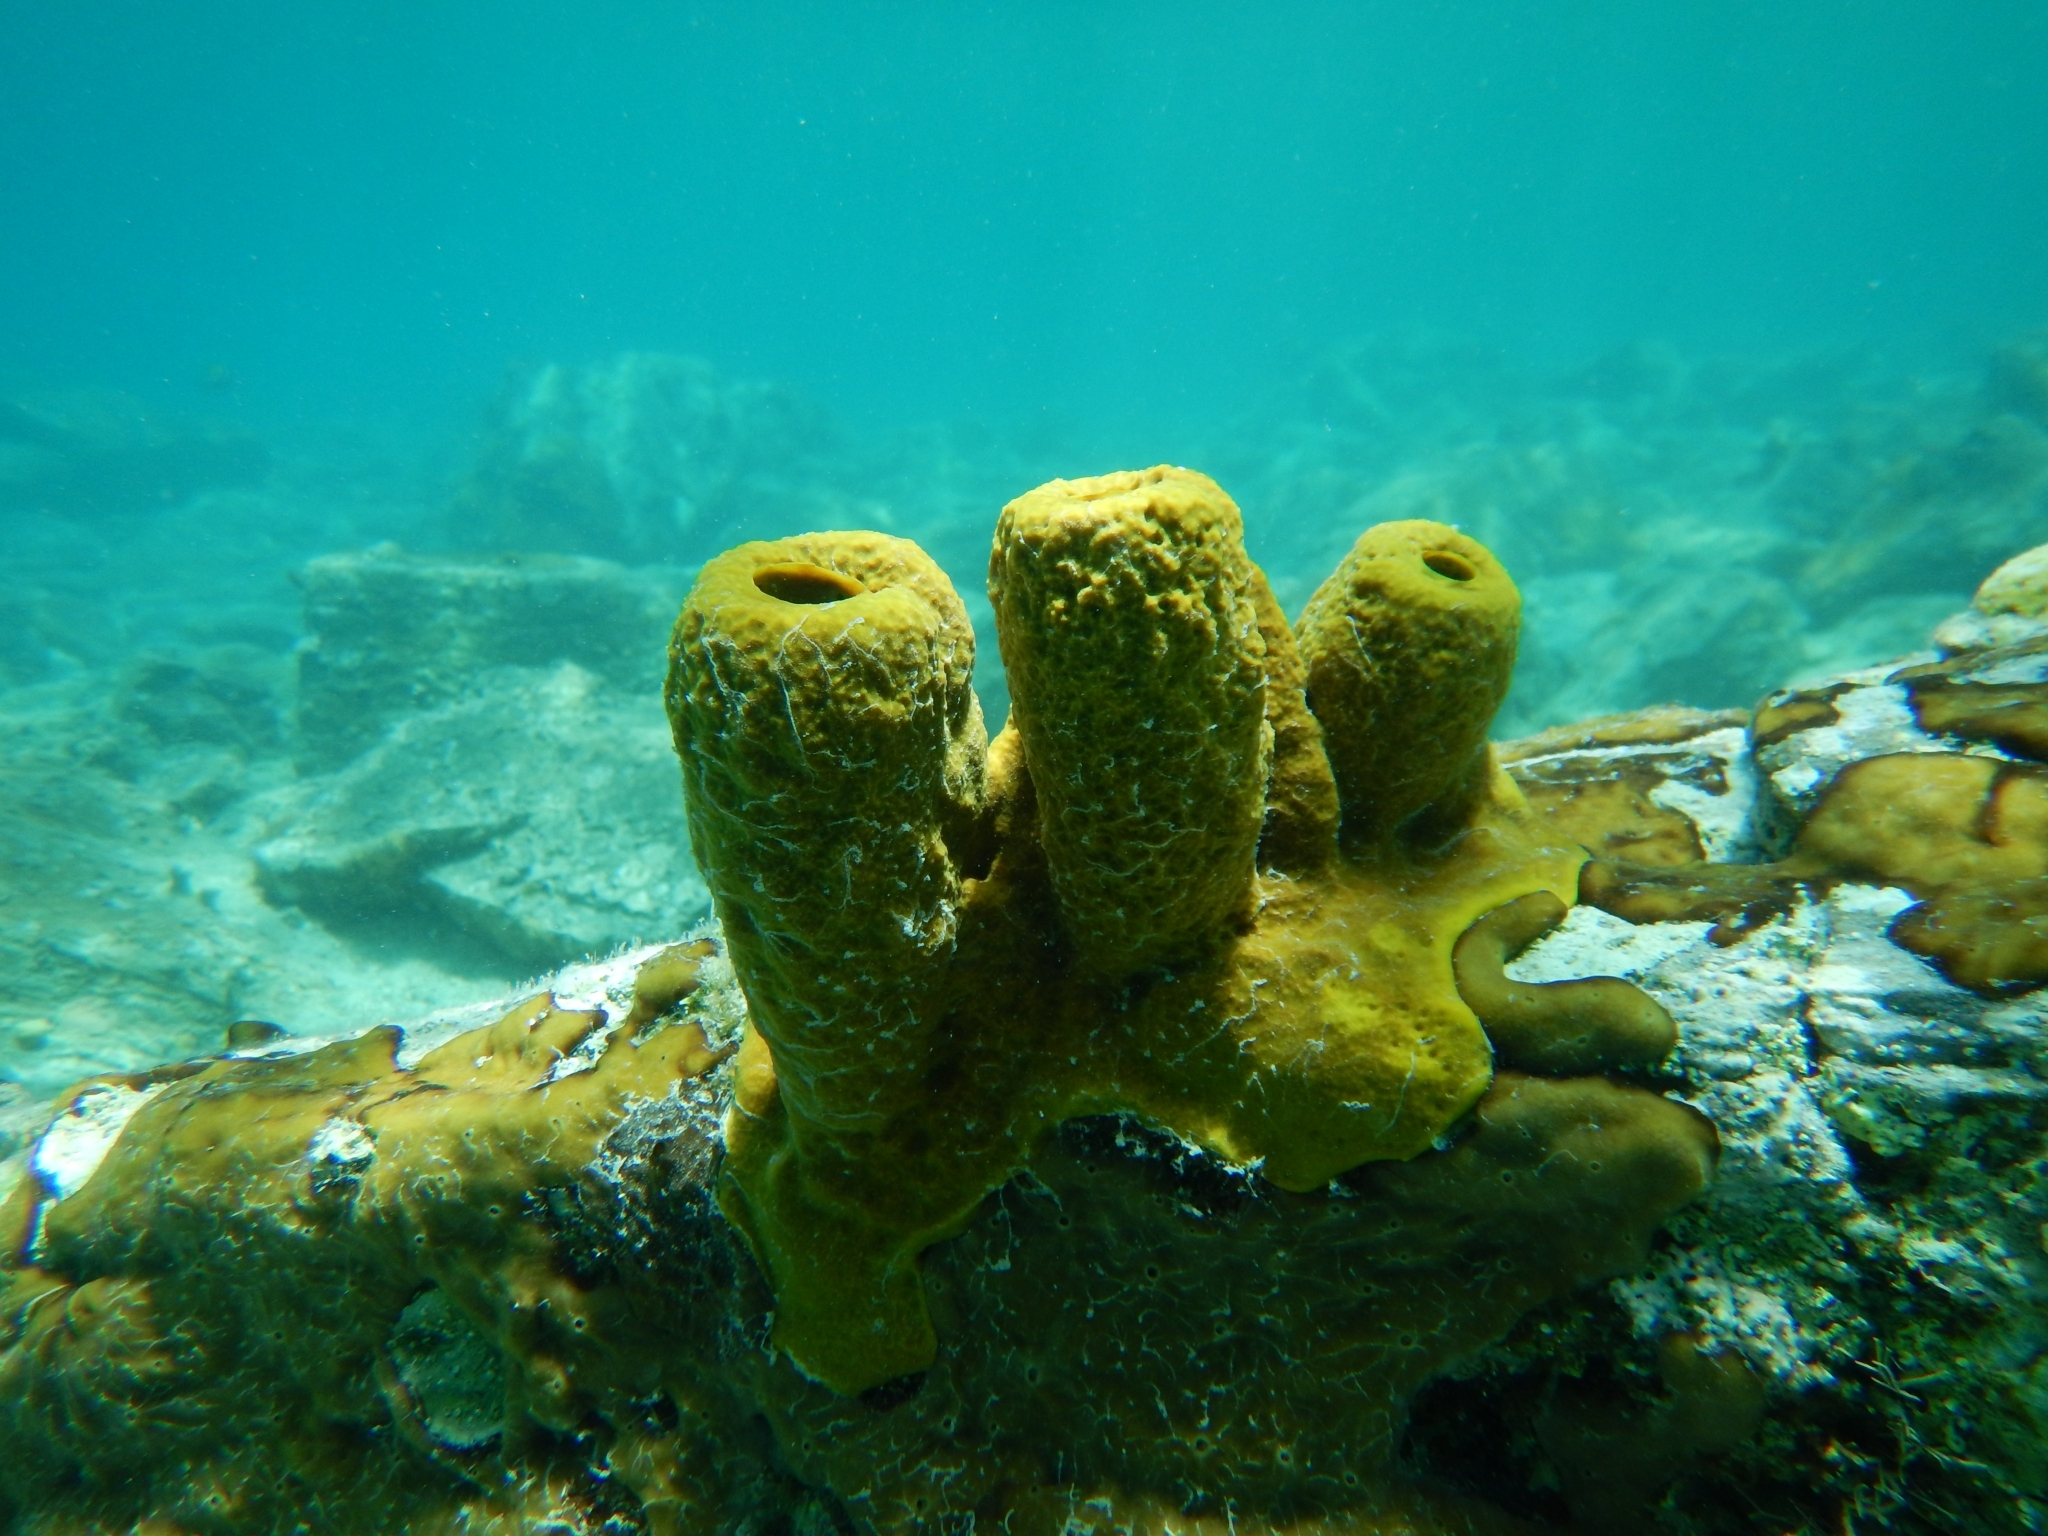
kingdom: Animalia
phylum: Porifera
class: Demospongiae
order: Verongiida
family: Aplysinidae
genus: Aplysina
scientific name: Aplysina fistularis
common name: Candle sponge
